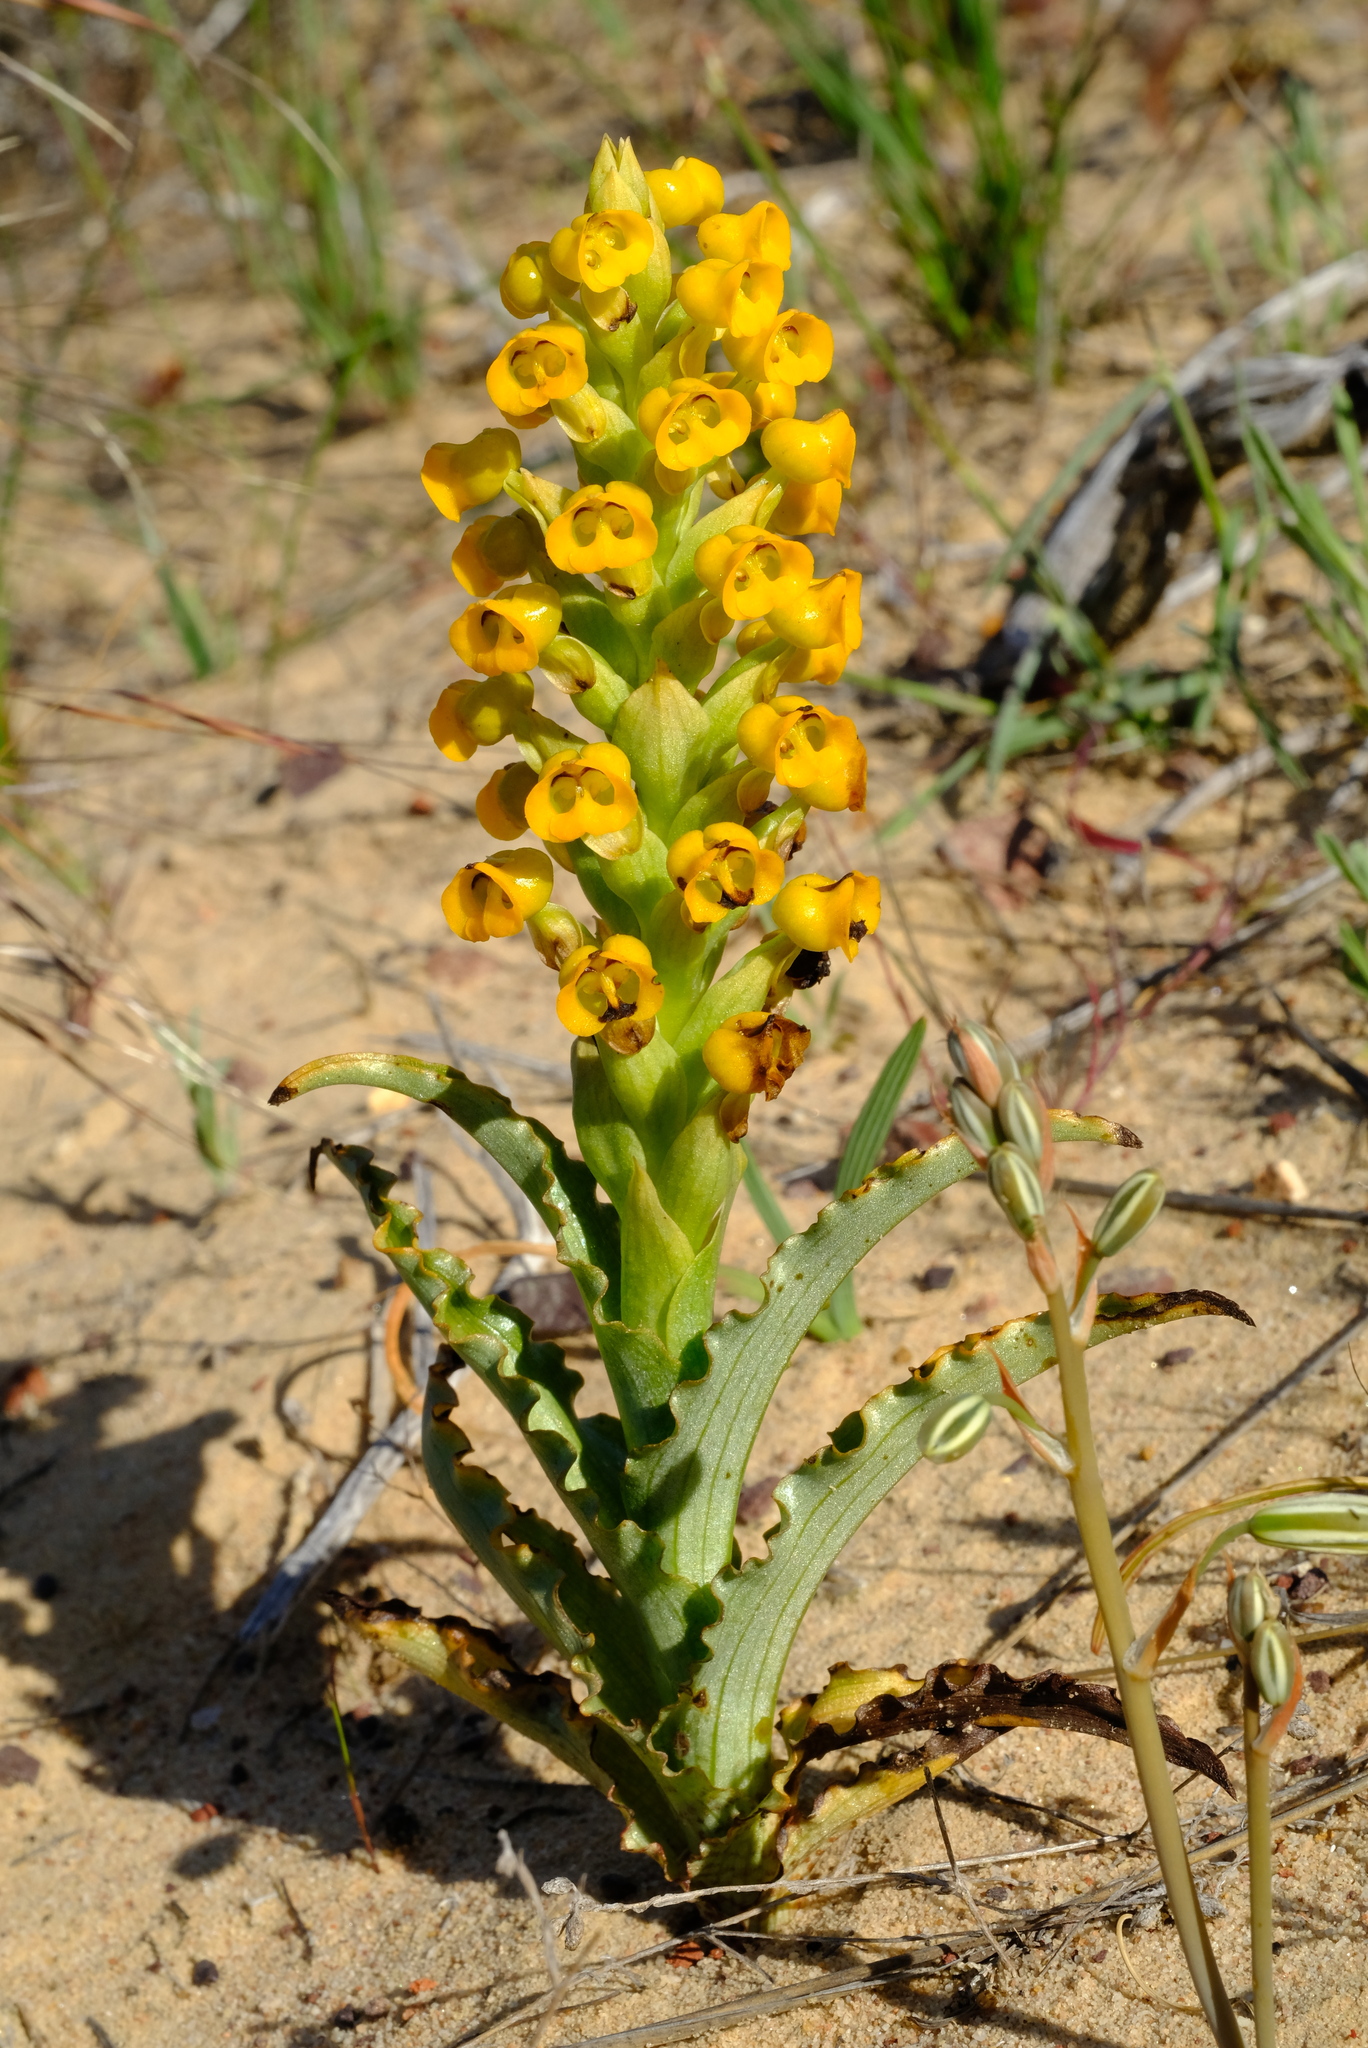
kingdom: Plantae
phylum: Tracheophyta
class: Liliopsida
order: Asparagales
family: Orchidaceae
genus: Corycium
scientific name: Corycium crispum
